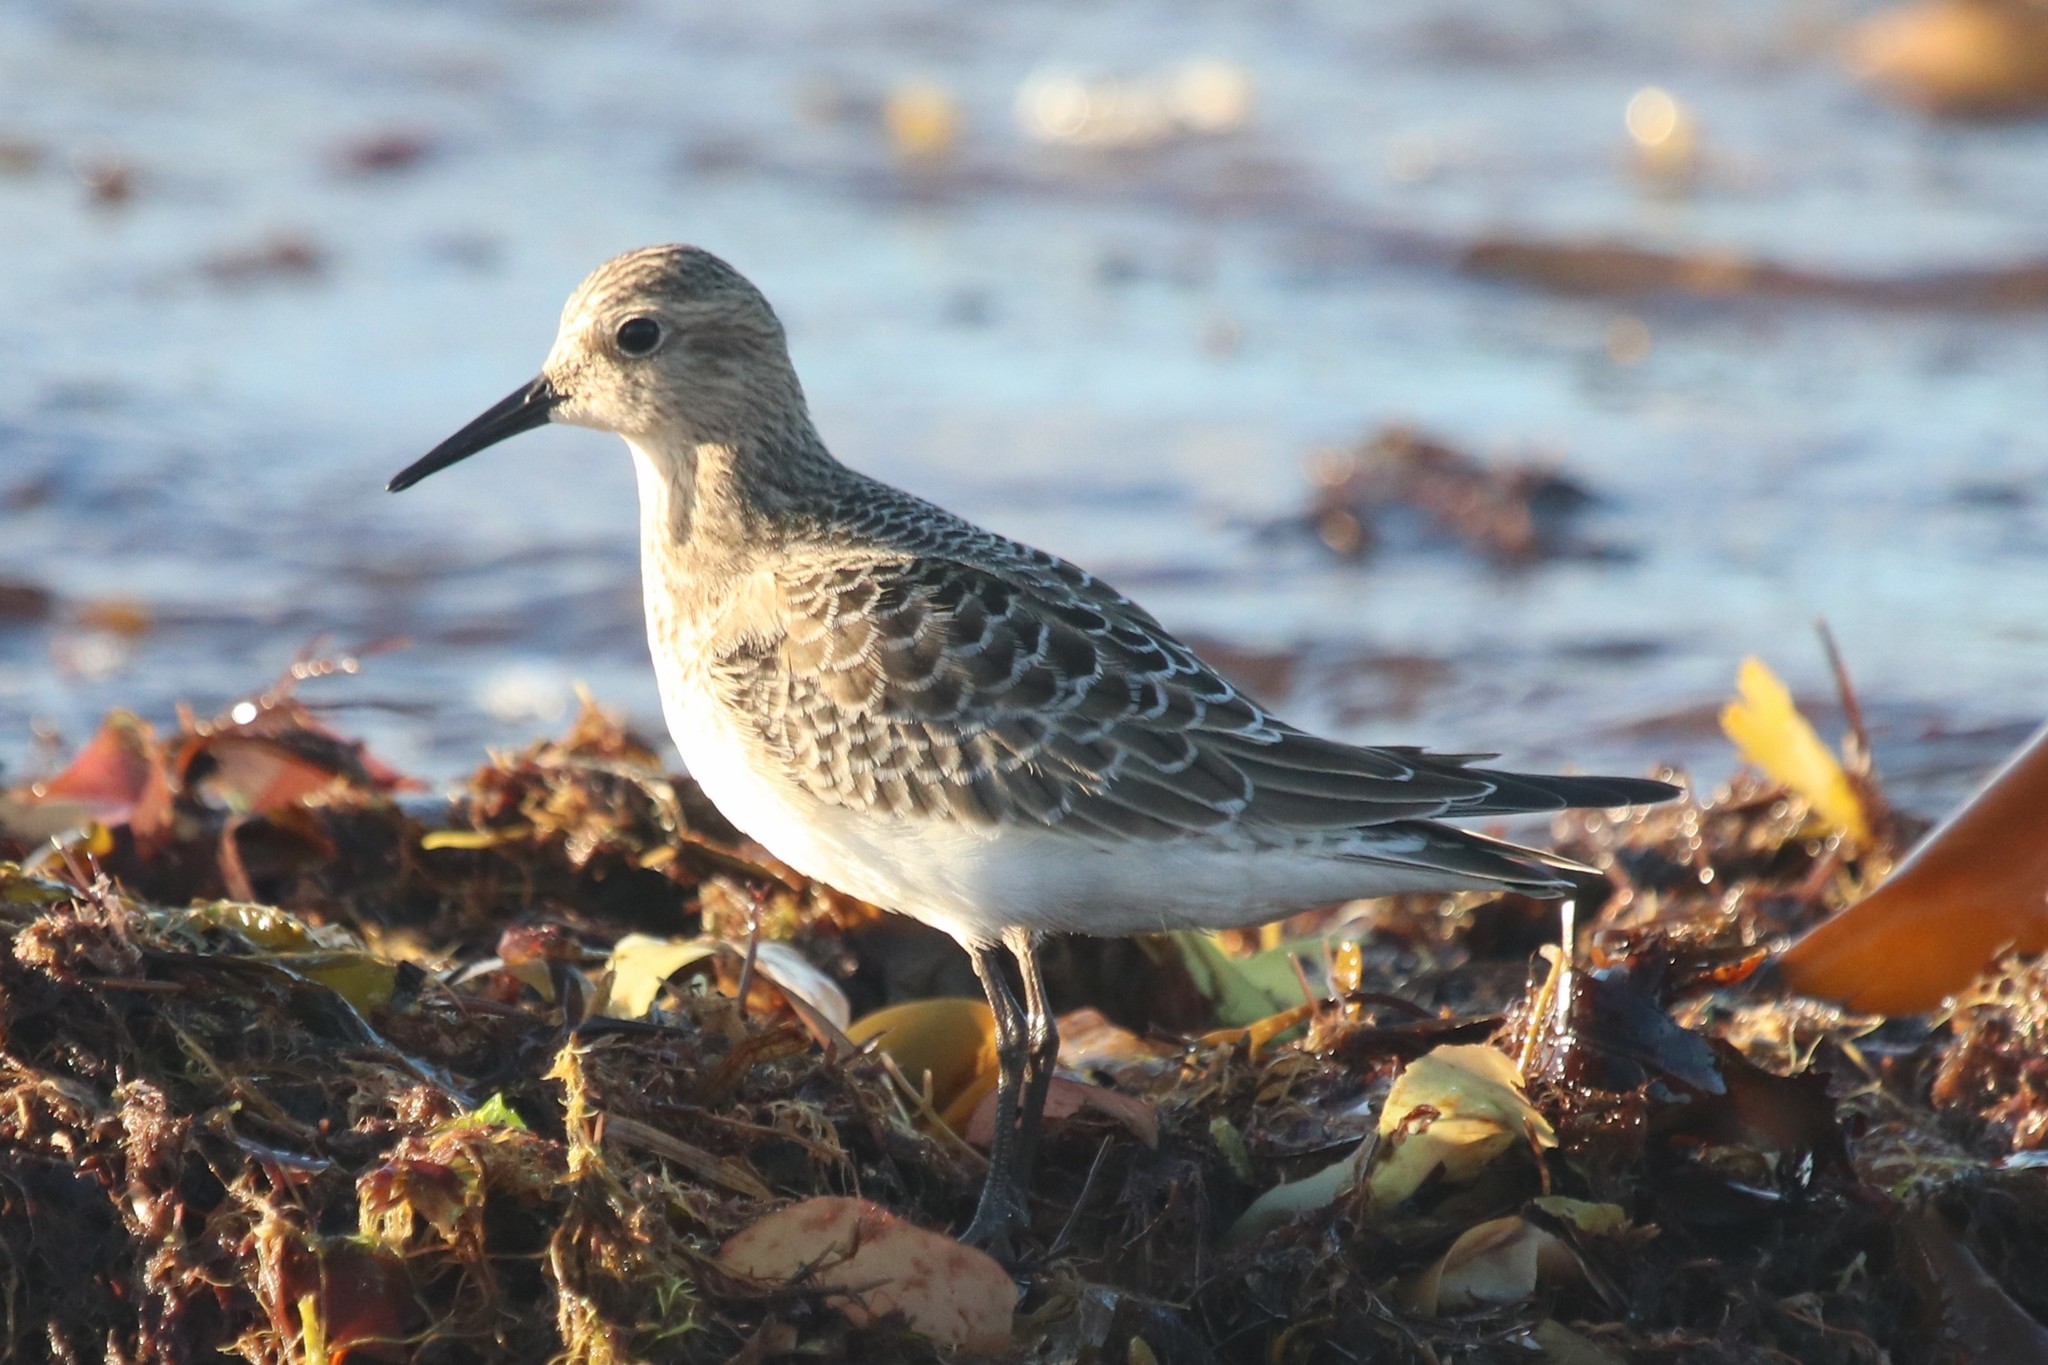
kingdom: Animalia
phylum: Chordata
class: Aves
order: Charadriiformes
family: Scolopacidae
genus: Calidris
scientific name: Calidris bairdii
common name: Baird's sandpiper
